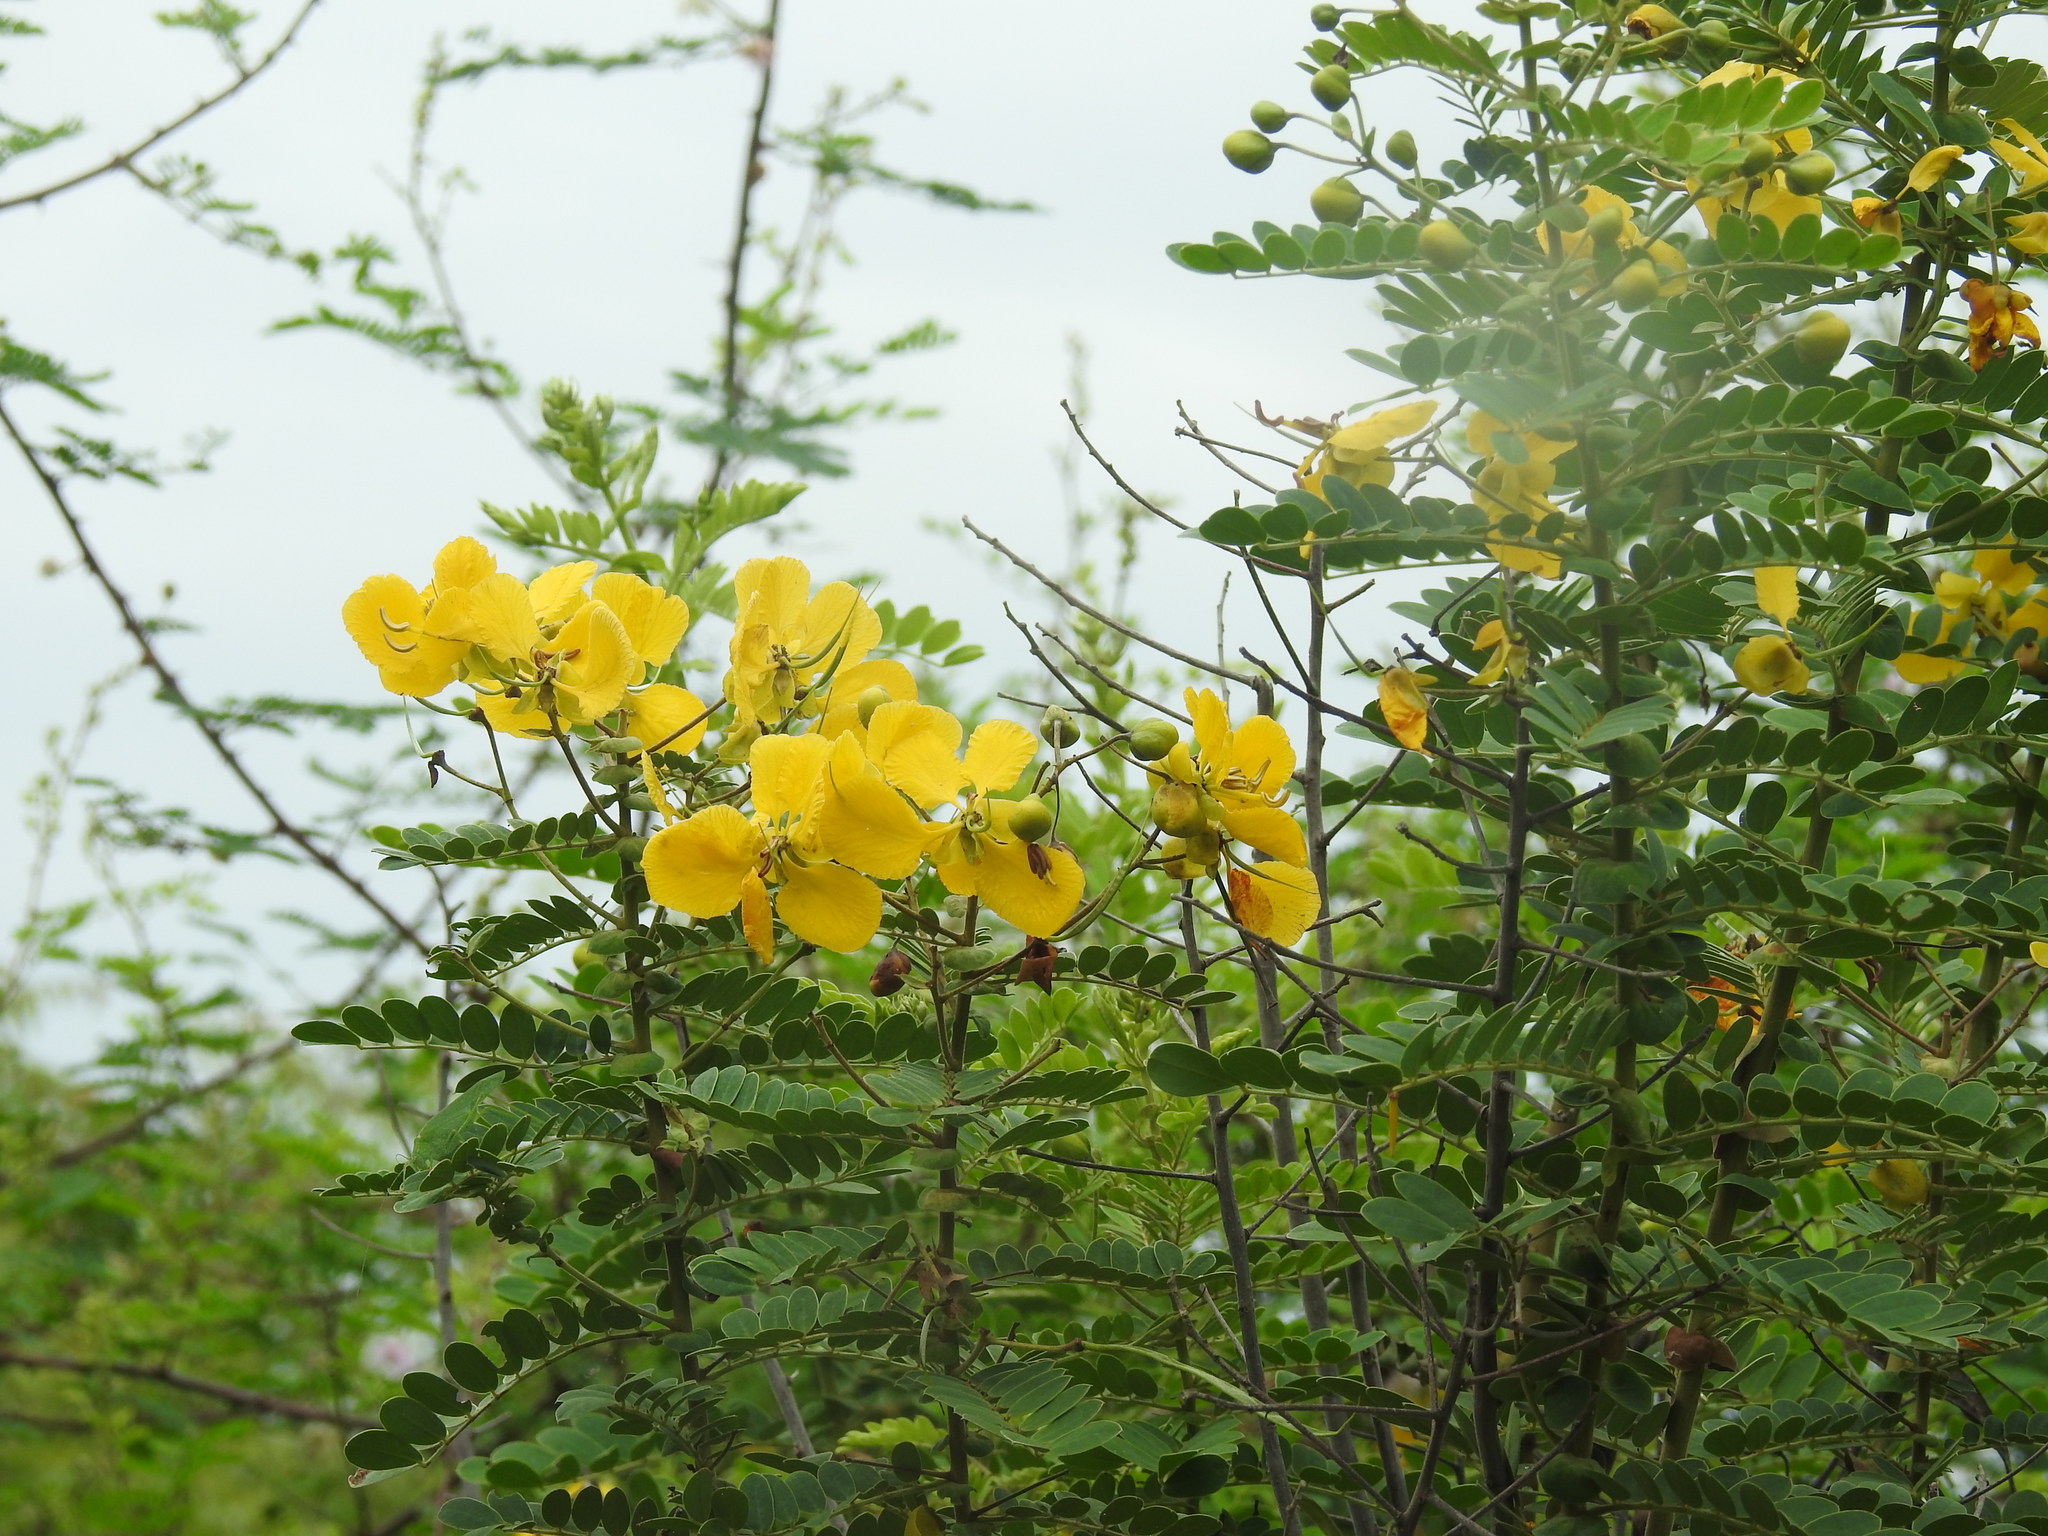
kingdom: Plantae
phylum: Tracheophyta
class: Magnoliopsida
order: Fabales
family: Fabaceae
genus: Senna
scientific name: Senna auriculata
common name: Tanner's cassia
